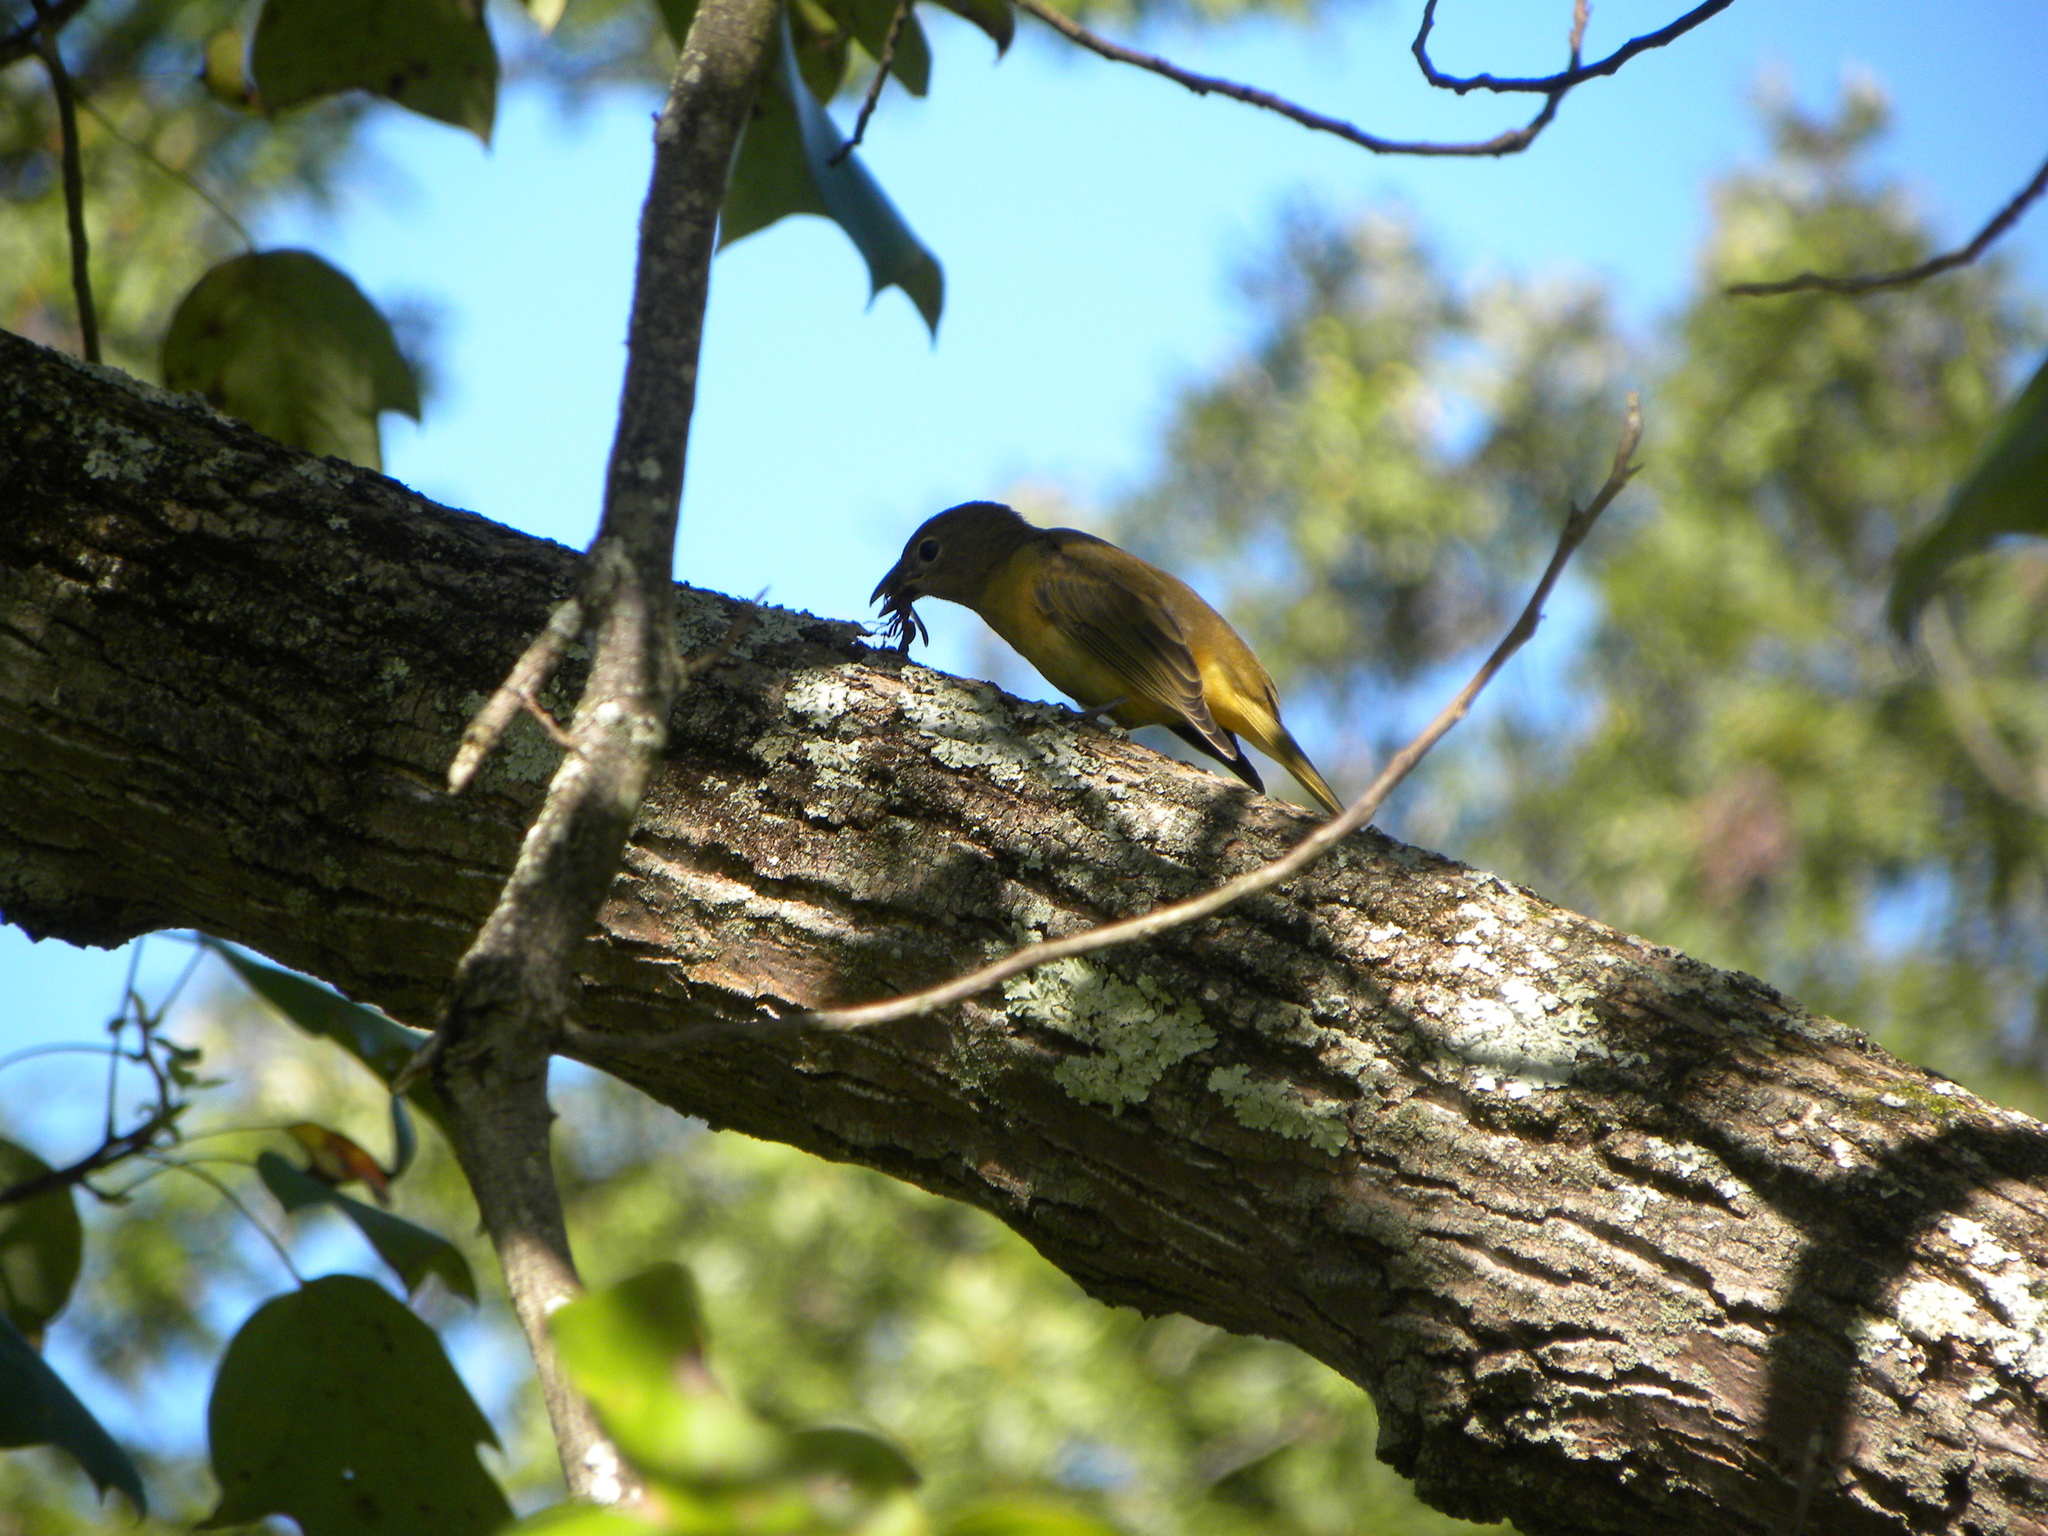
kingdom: Animalia
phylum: Chordata
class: Aves
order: Passeriformes
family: Cardinalidae
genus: Piranga
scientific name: Piranga rubra
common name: Summer tanager
